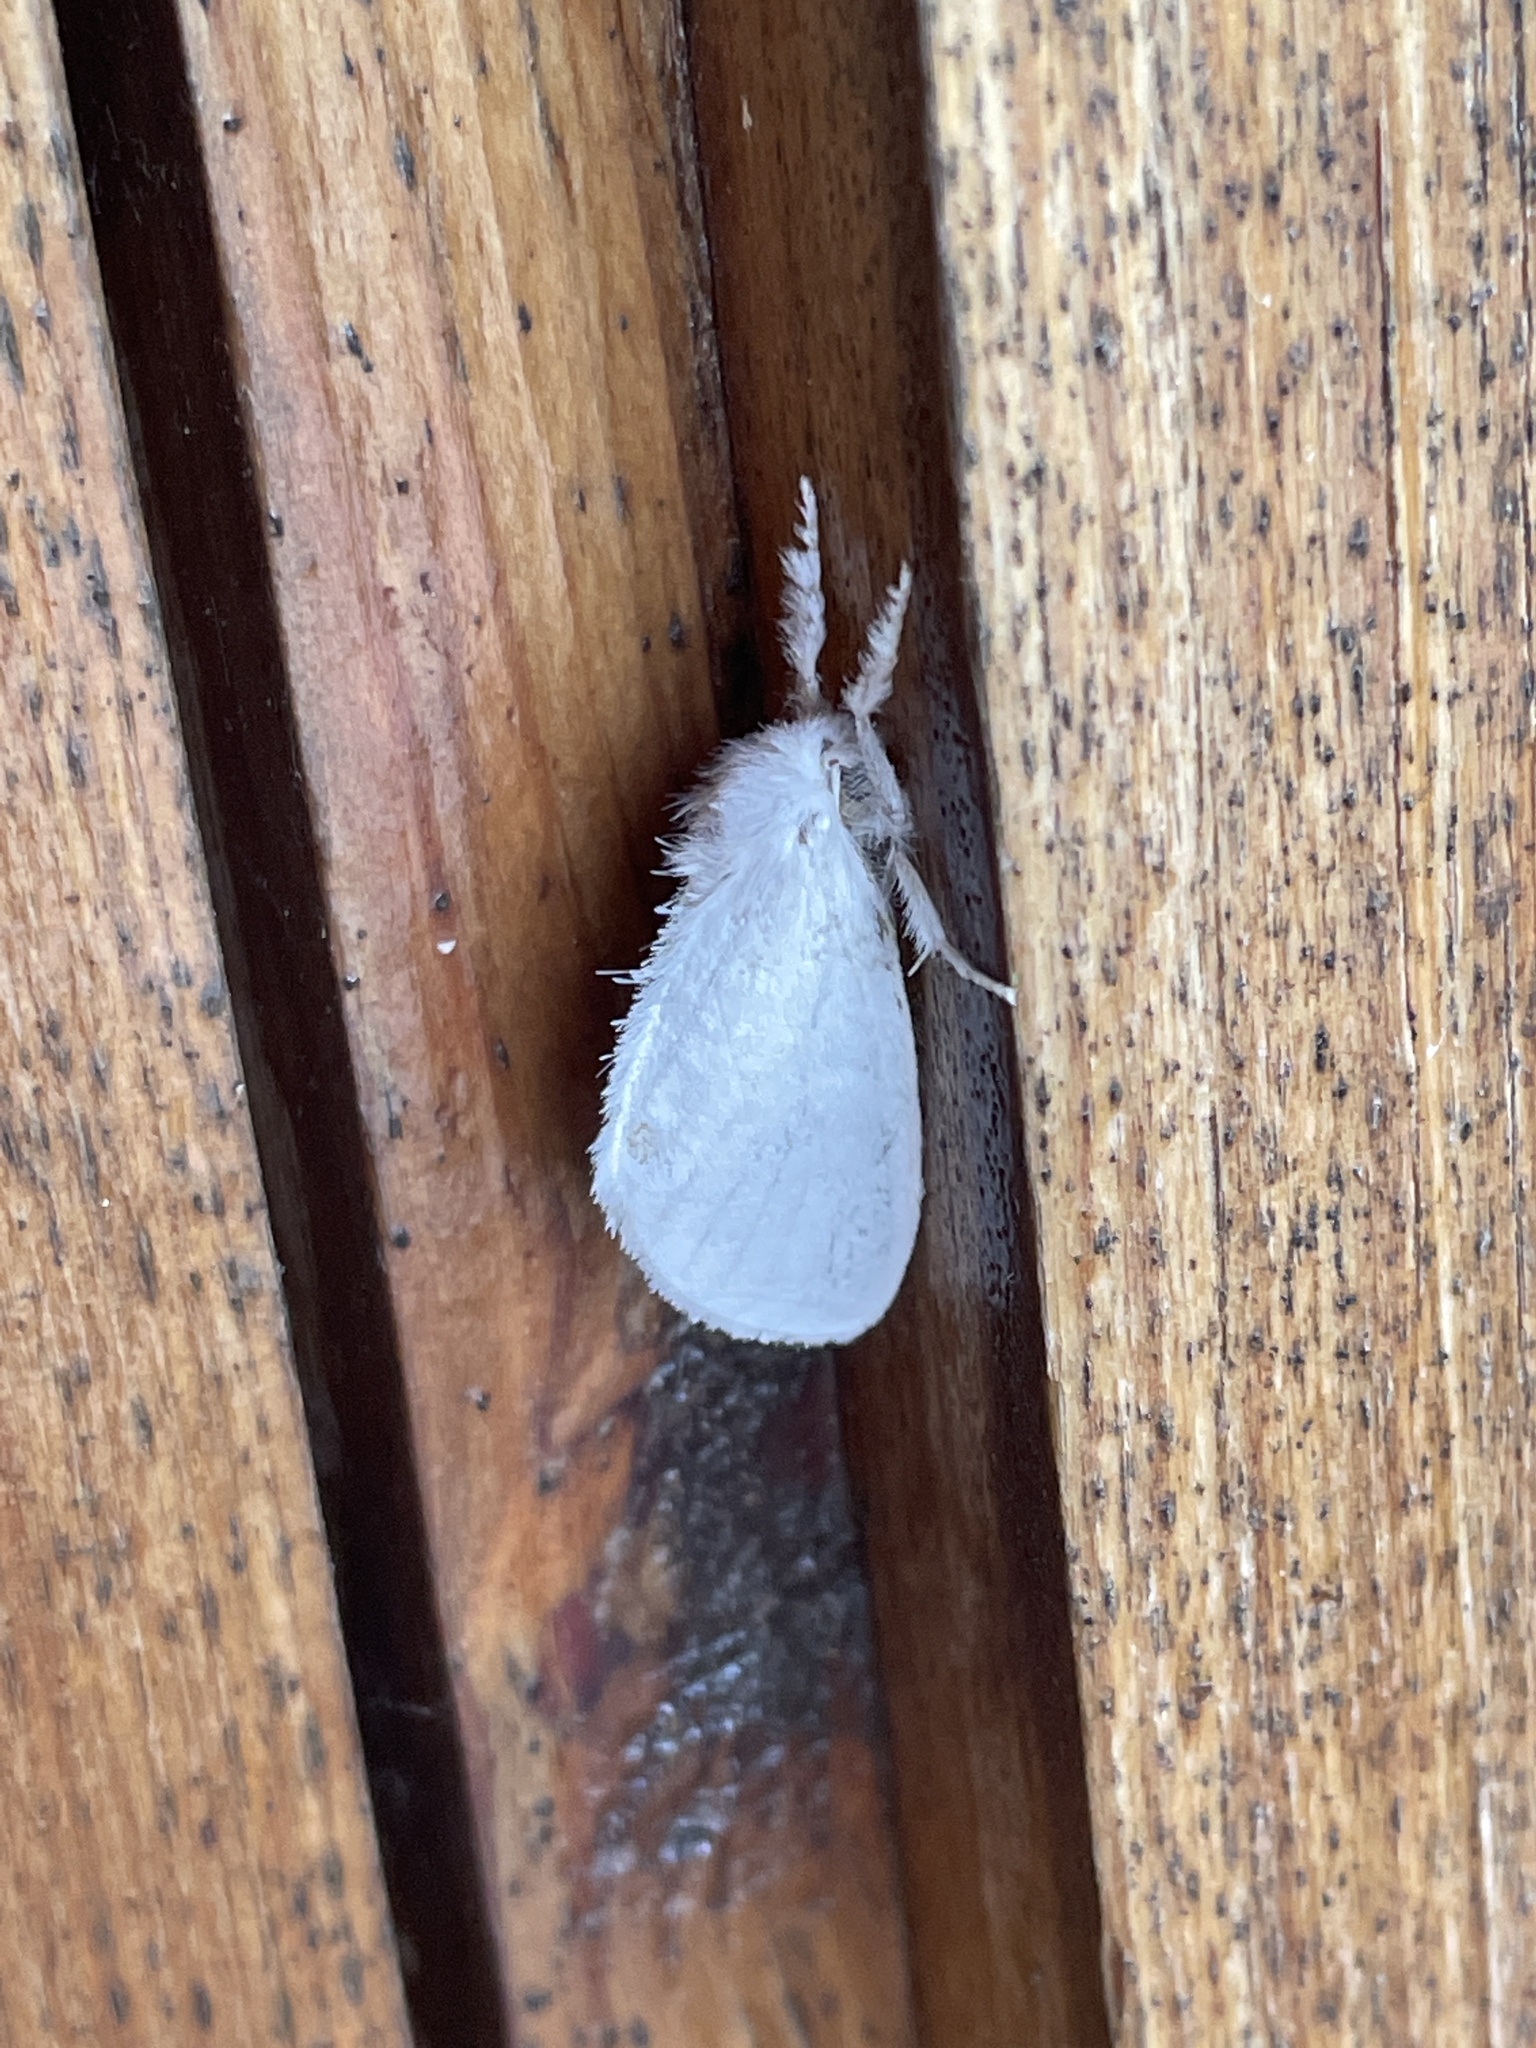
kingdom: Animalia
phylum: Arthropoda
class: Insecta
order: Lepidoptera
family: Erebidae
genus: Sphrageidus
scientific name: Sphrageidus similis
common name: Yellow-tail
